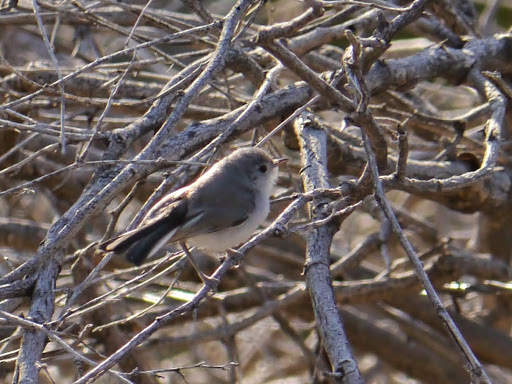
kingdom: Animalia
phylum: Chordata
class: Aves
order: Passeriformes
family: Polioptilidae
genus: Polioptila
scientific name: Polioptila melanura
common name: Black-tailed gnatcatcher
